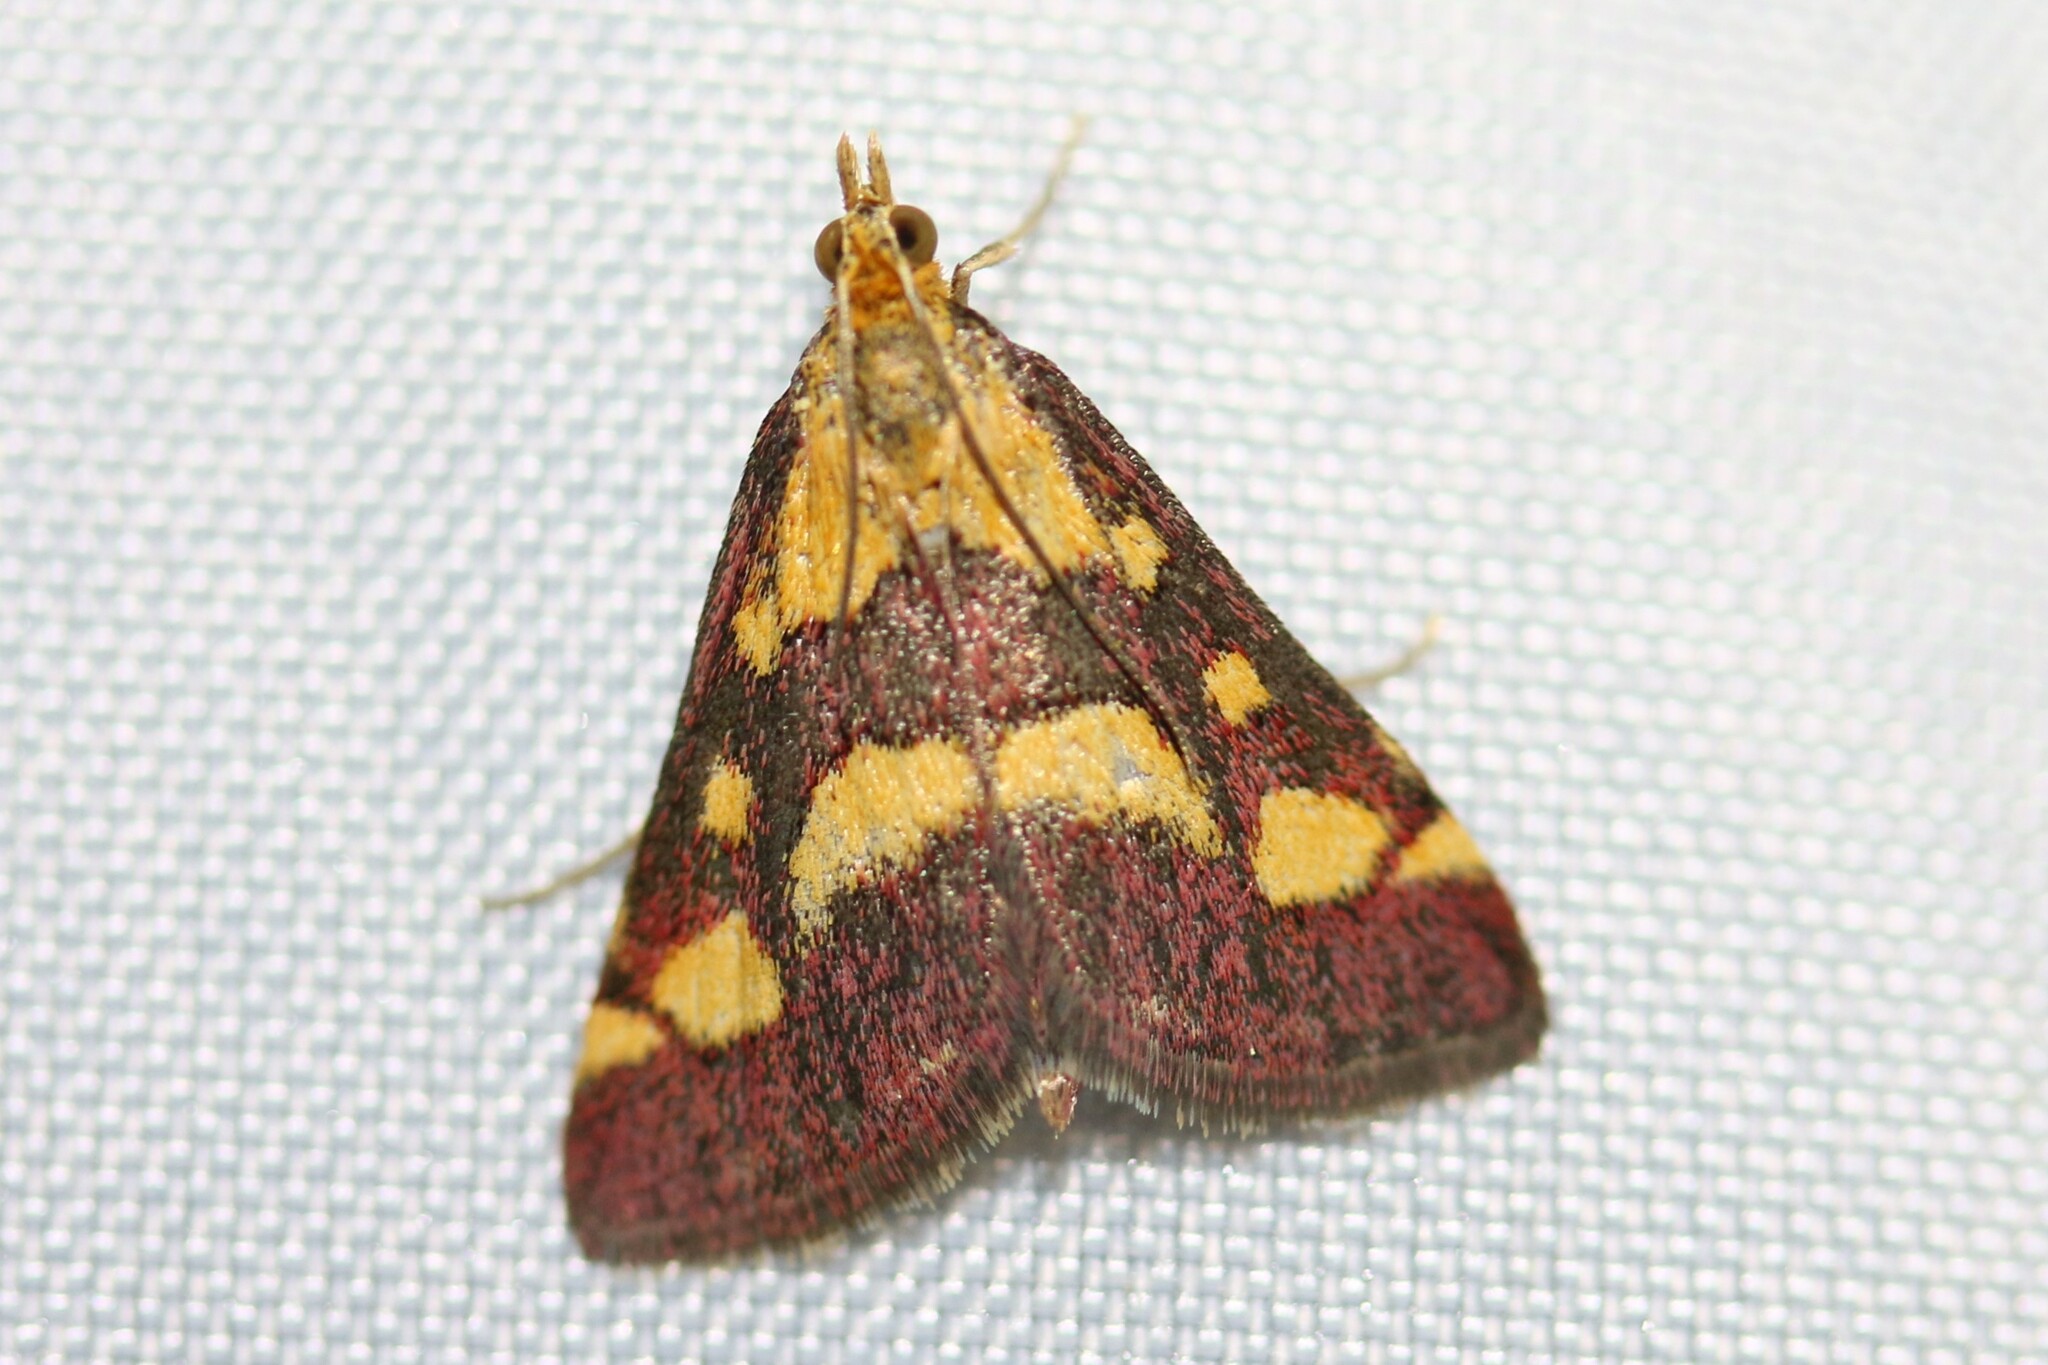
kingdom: Animalia
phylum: Arthropoda
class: Insecta
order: Lepidoptera
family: Crambidae
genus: Pyrausta
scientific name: Pyrausta purpuralis
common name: Common purple & gold
